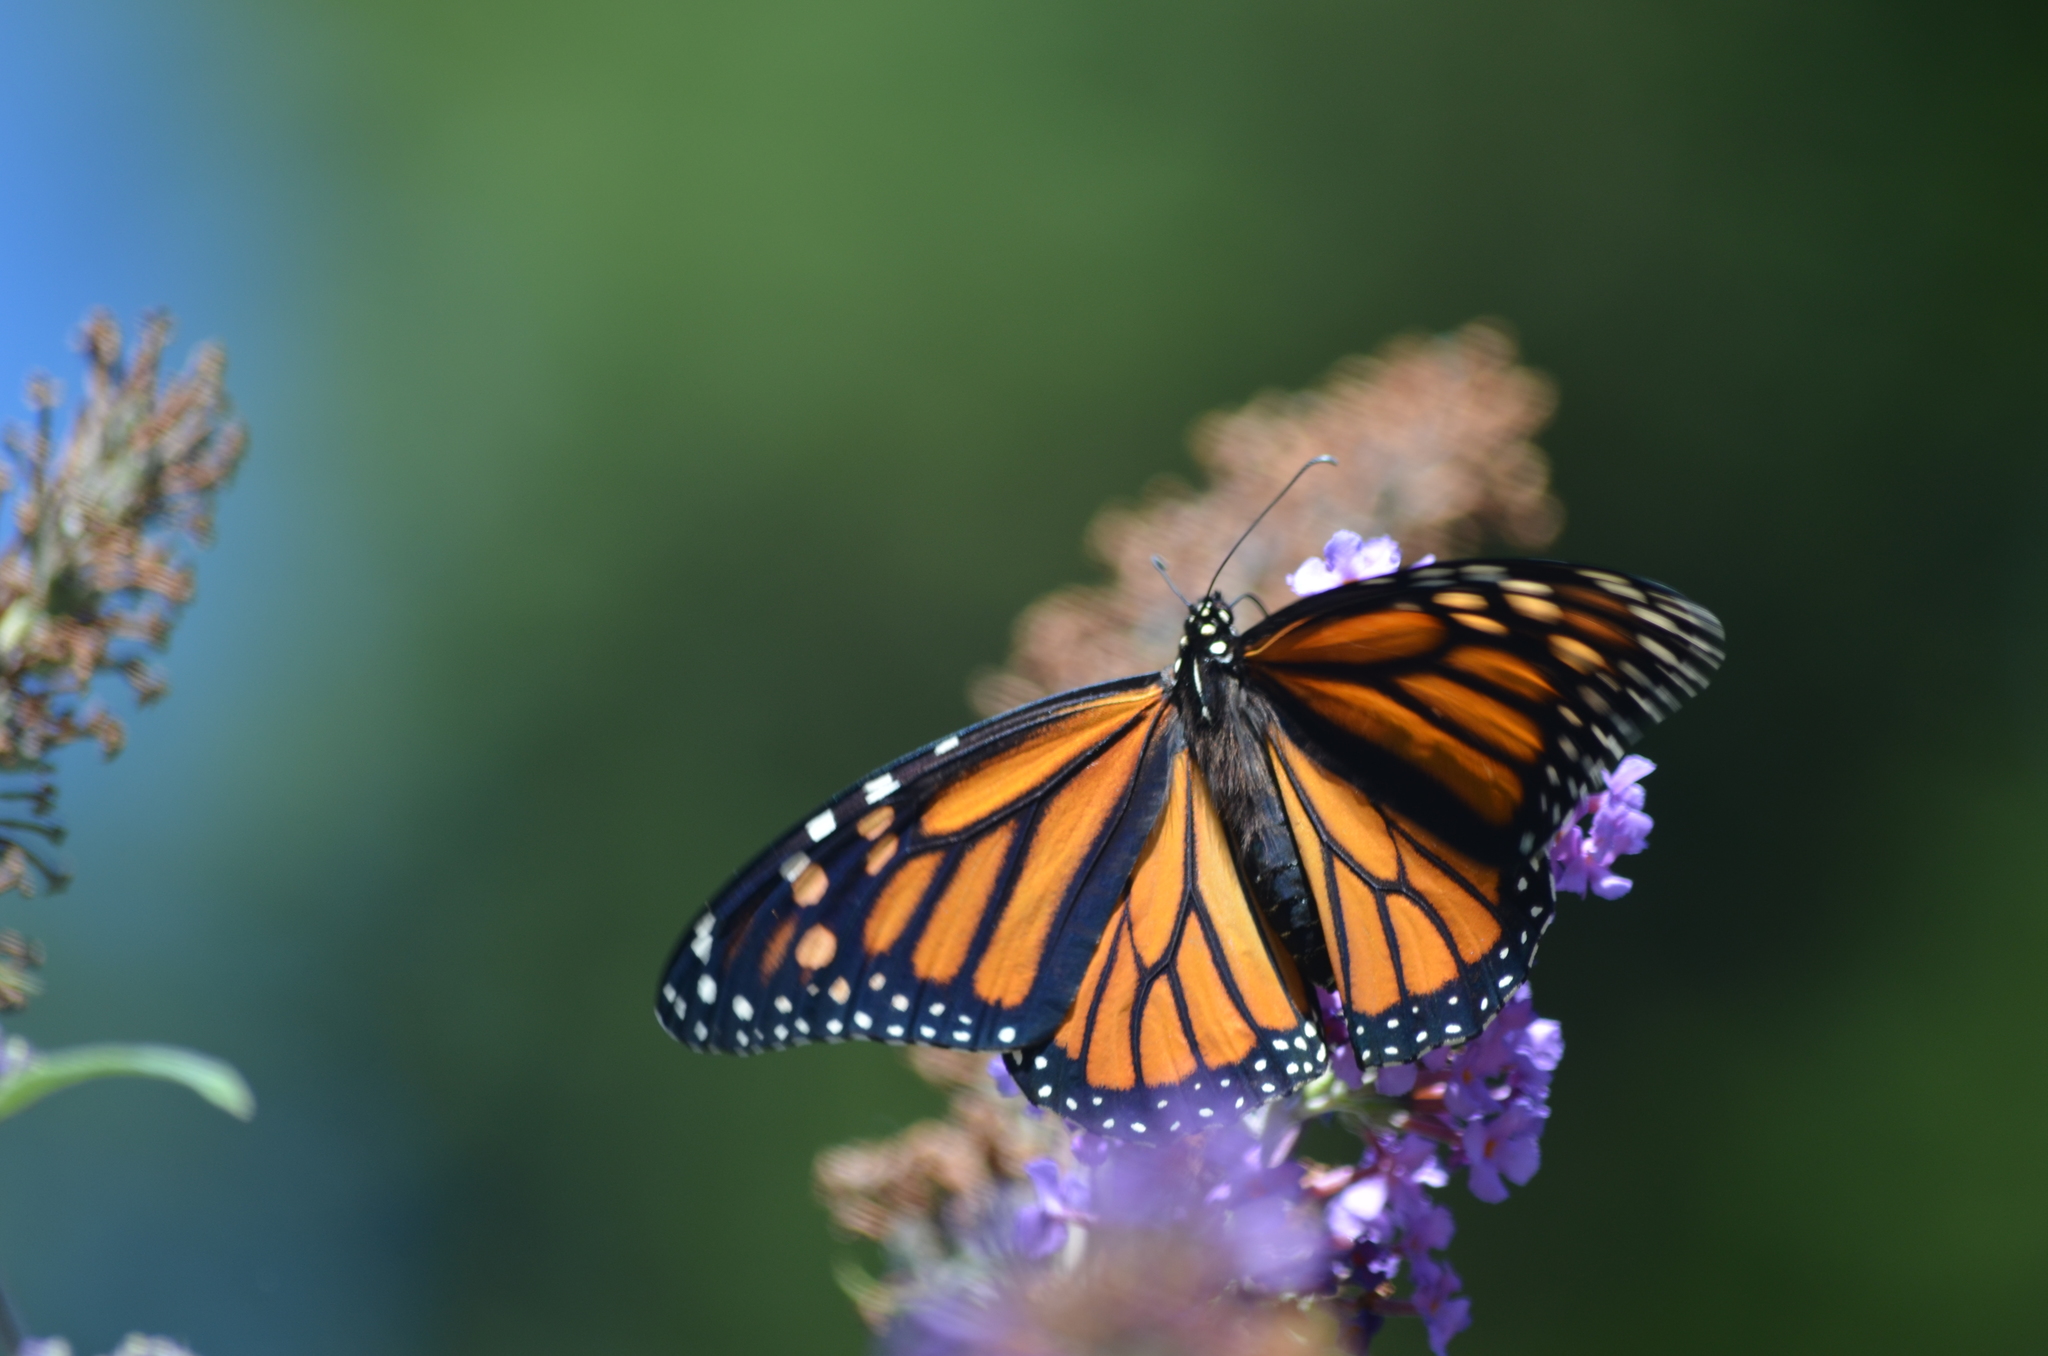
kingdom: Animalia
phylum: Arthropoda
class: Insecta
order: Lepidoptera
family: Nymphalidae
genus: Danaus
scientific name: Danaus plexippus
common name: Monarch
